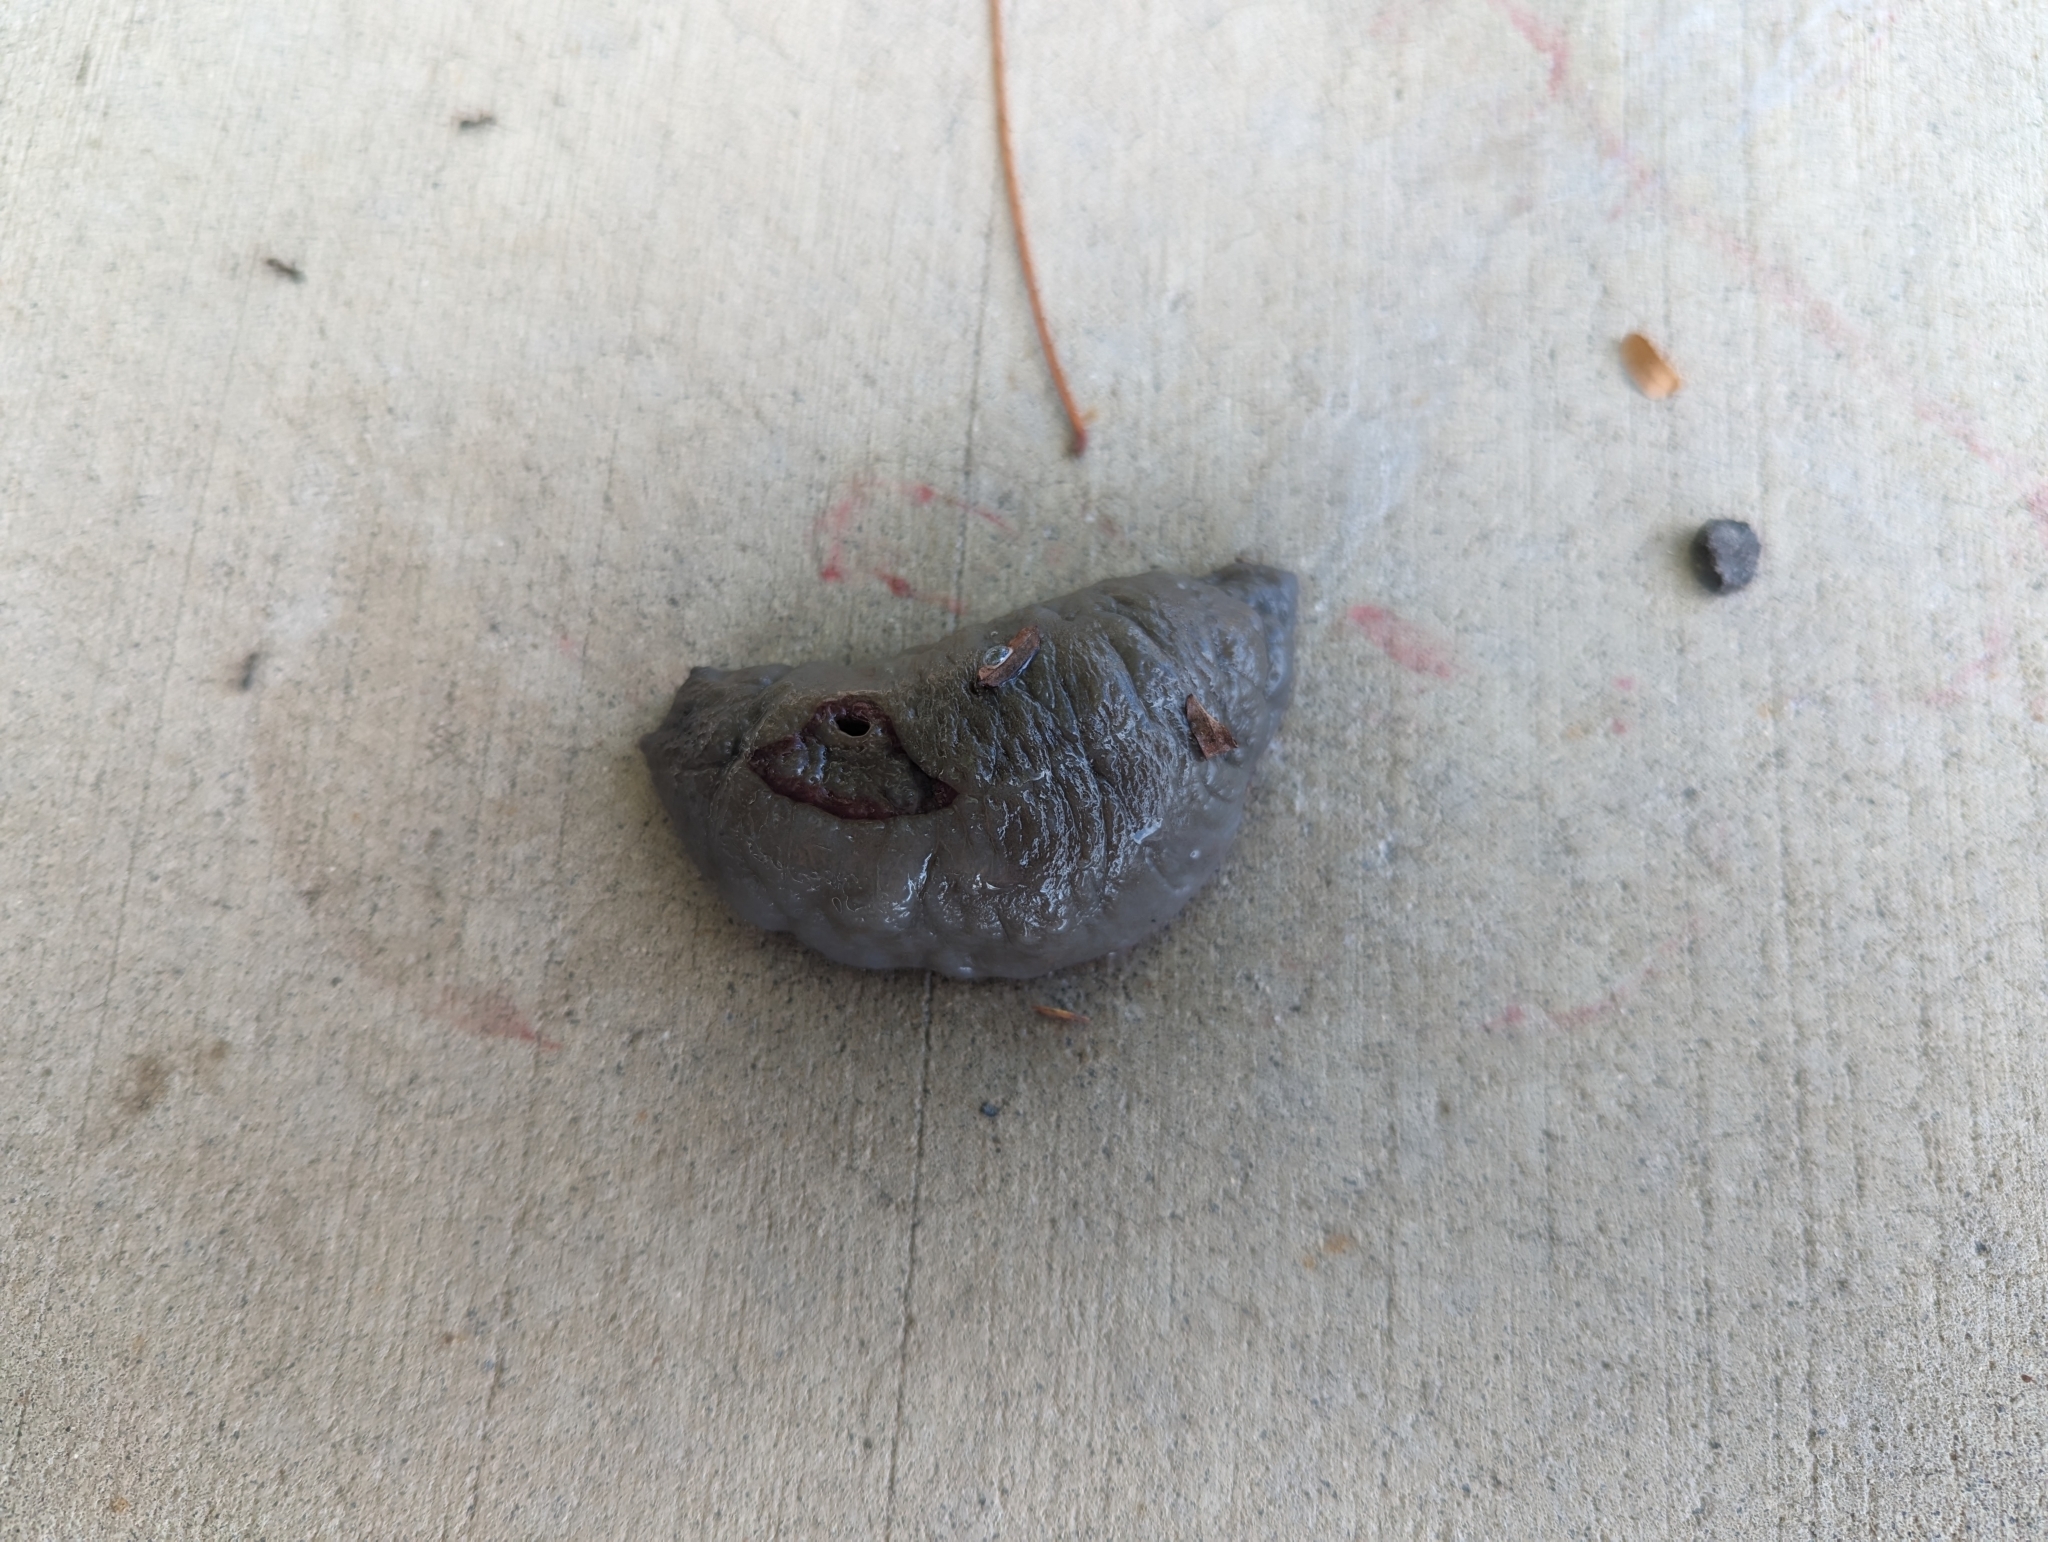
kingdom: Animalia
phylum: Mollusca
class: Gastropoda
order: Stylommatophora
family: Athoracophoridae
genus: Triboniophorus
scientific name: Triboniophorus graeffei
